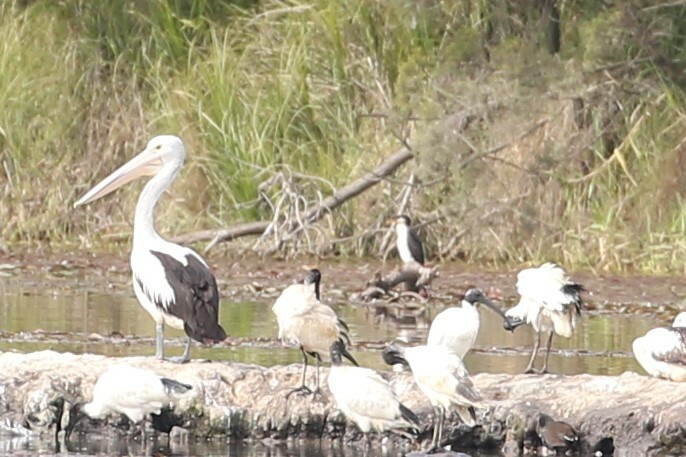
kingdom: Animalia
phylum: Chordata
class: Aves
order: Pelecaniformes
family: Pelecanidae
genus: Pelecanus
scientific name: Pelecanus conspicillatus
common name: Australian pelican
